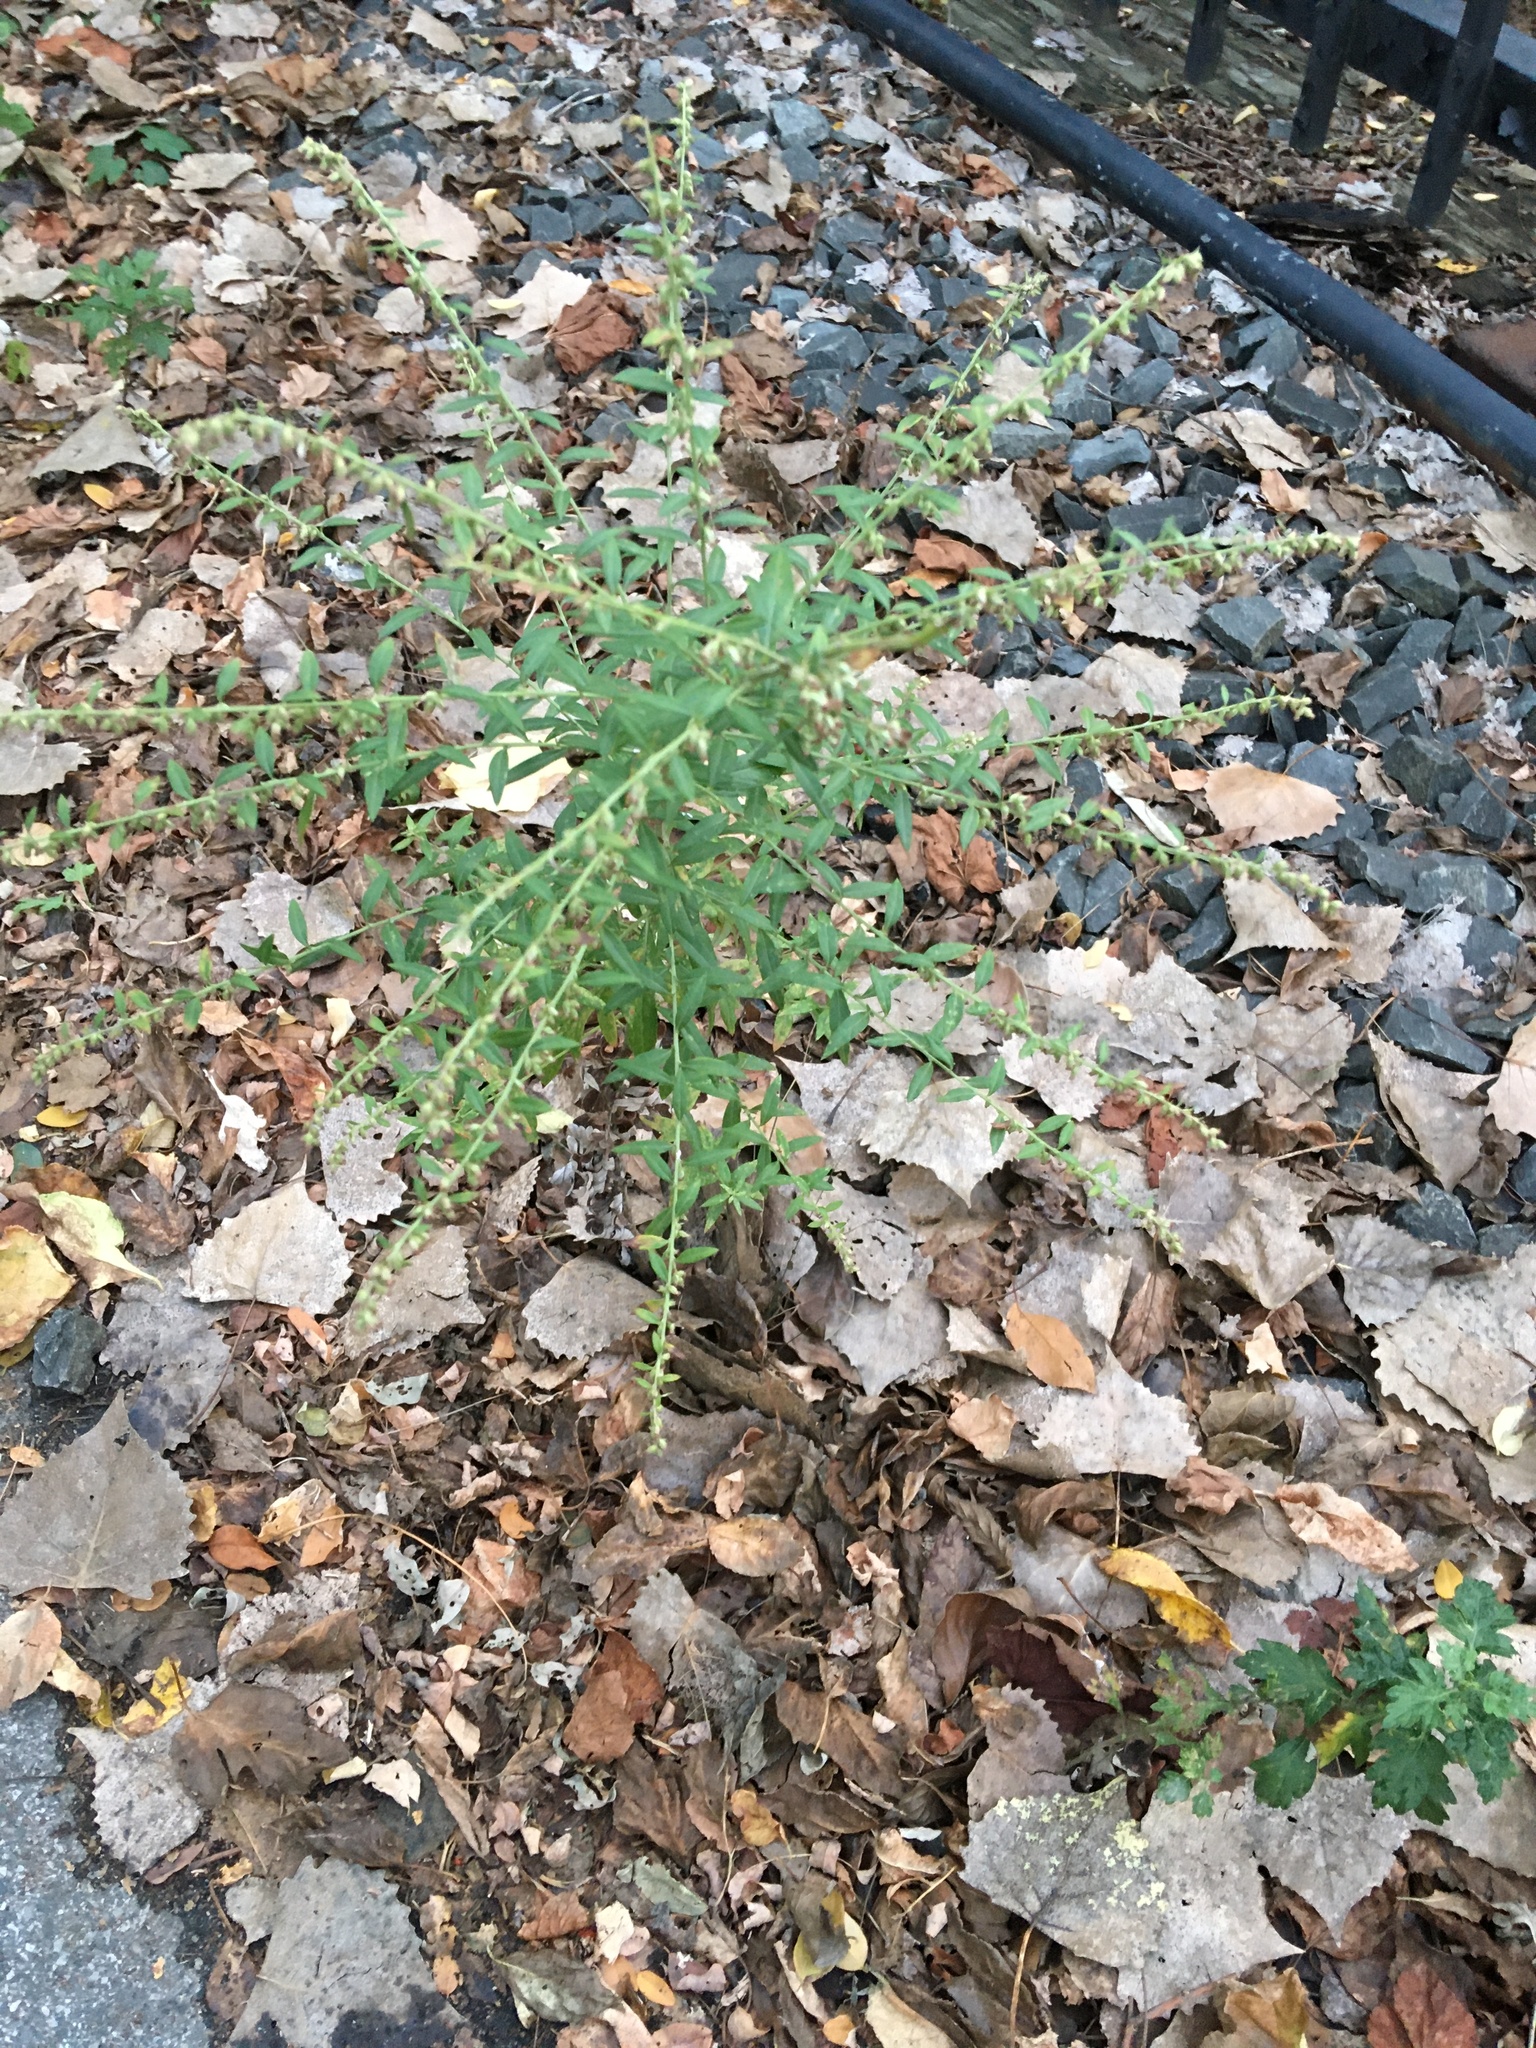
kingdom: Plantae
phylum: Tracheophyta
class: Magnoliopsida
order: Asterales
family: Asteraceae
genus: Artemisia
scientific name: Artemisia vulgaris
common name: Mugwort
